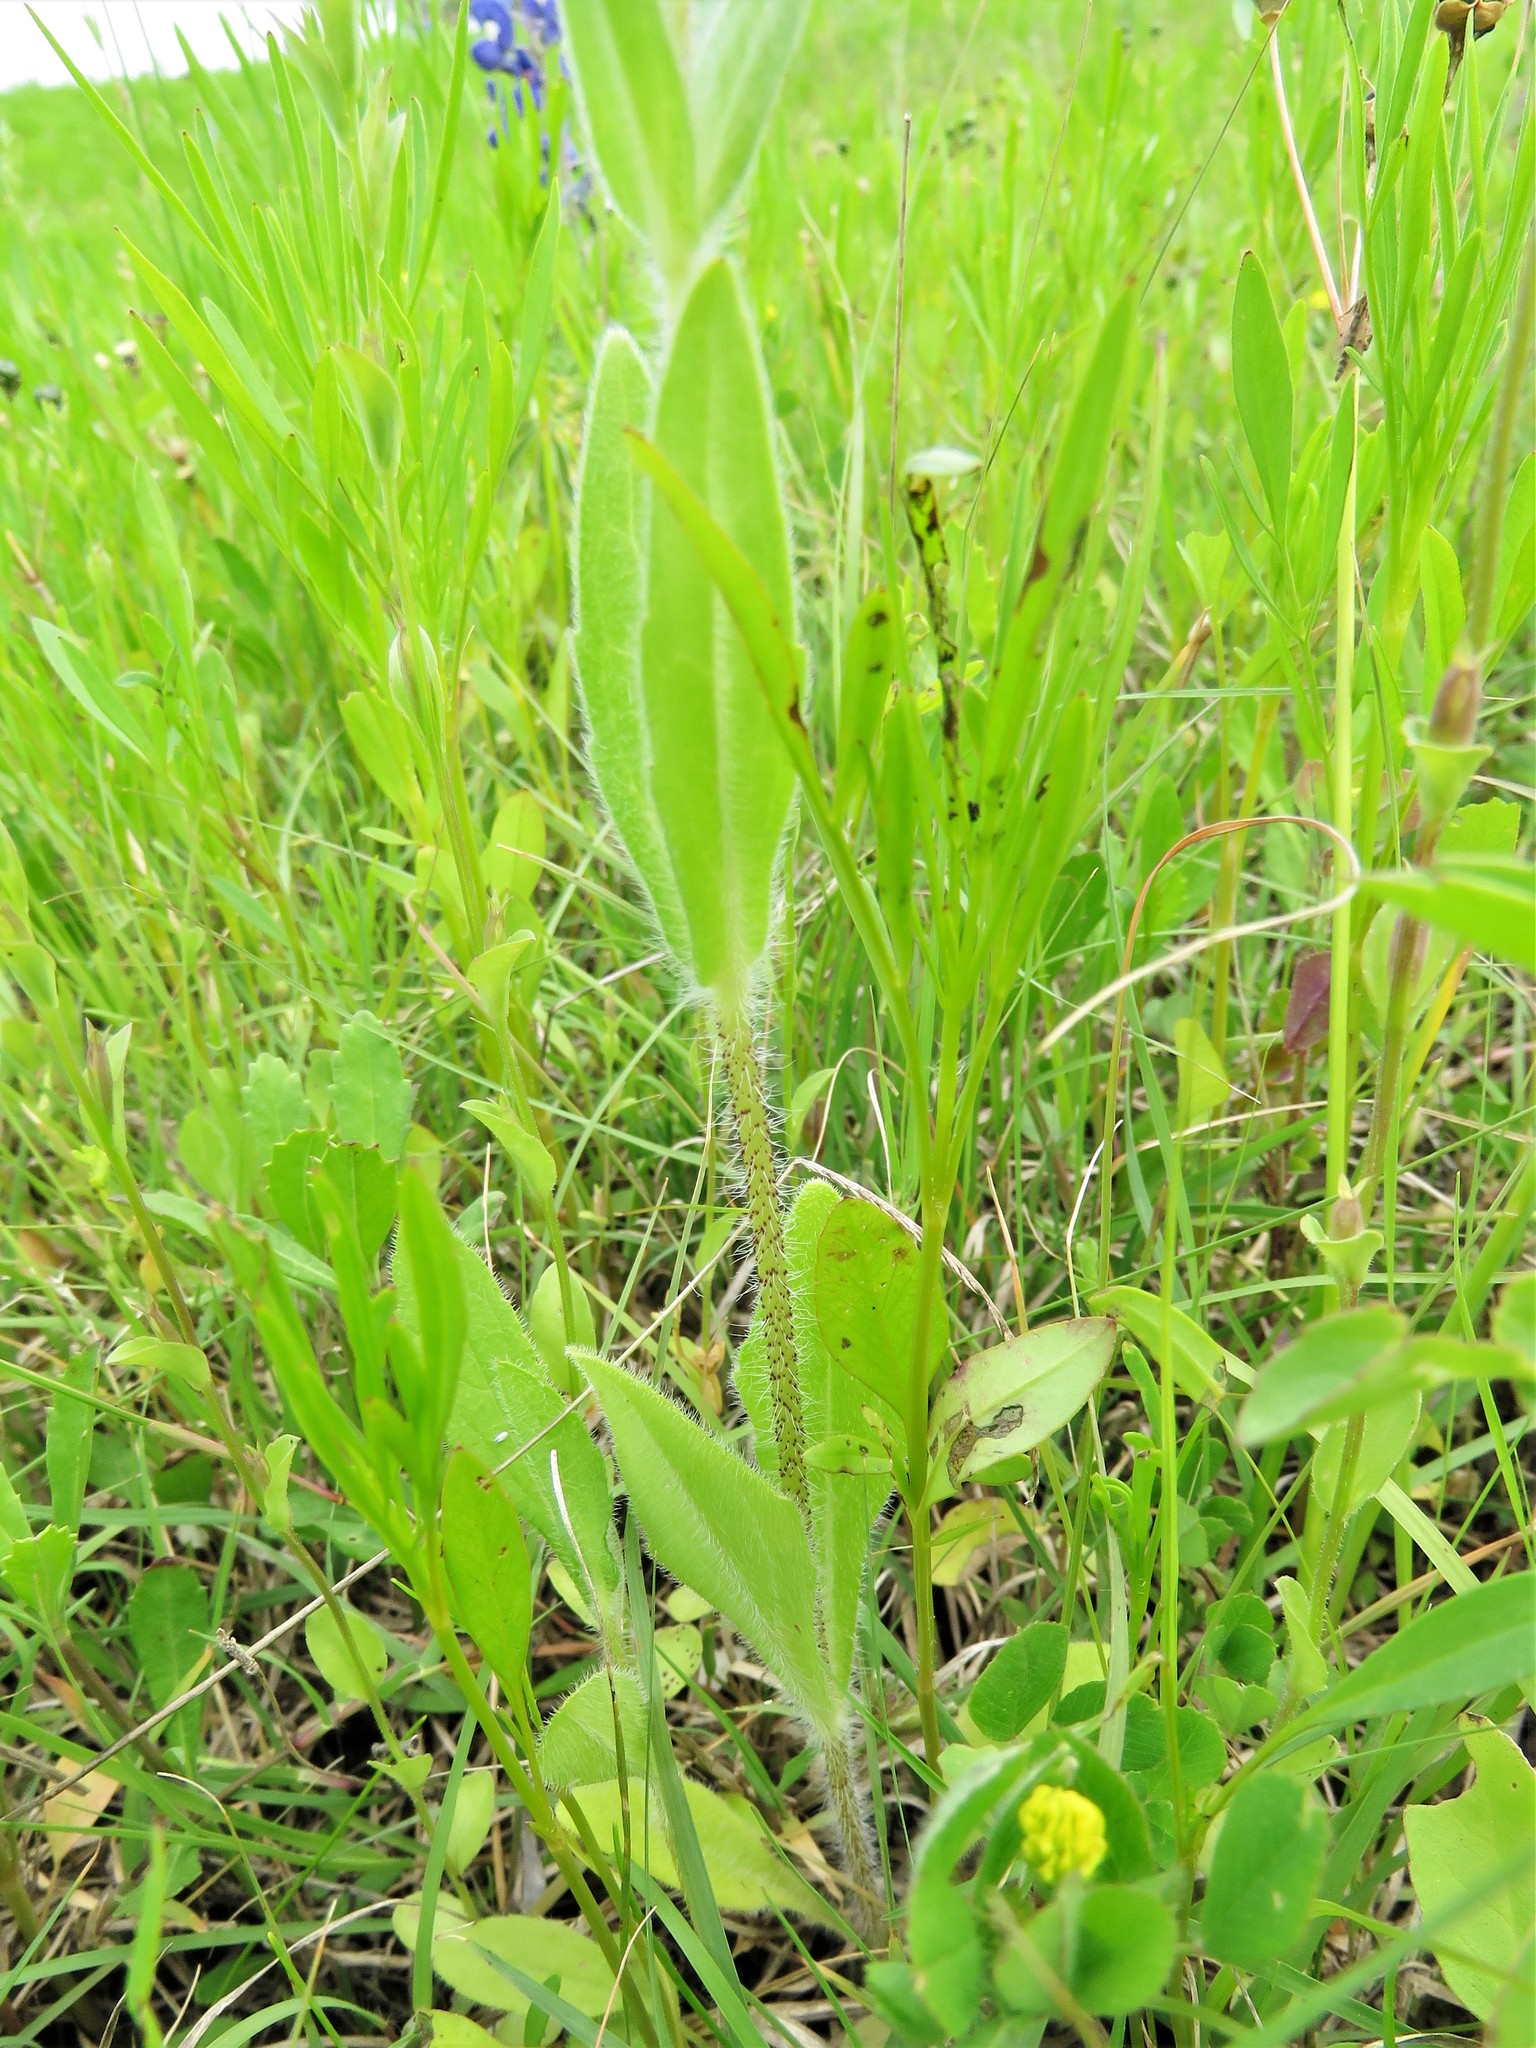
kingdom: Plantae
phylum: Tracheophyta
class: Magnoliopsida
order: Asterales
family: Asteraceae
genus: Lindheimera
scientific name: Lindheimera texana
